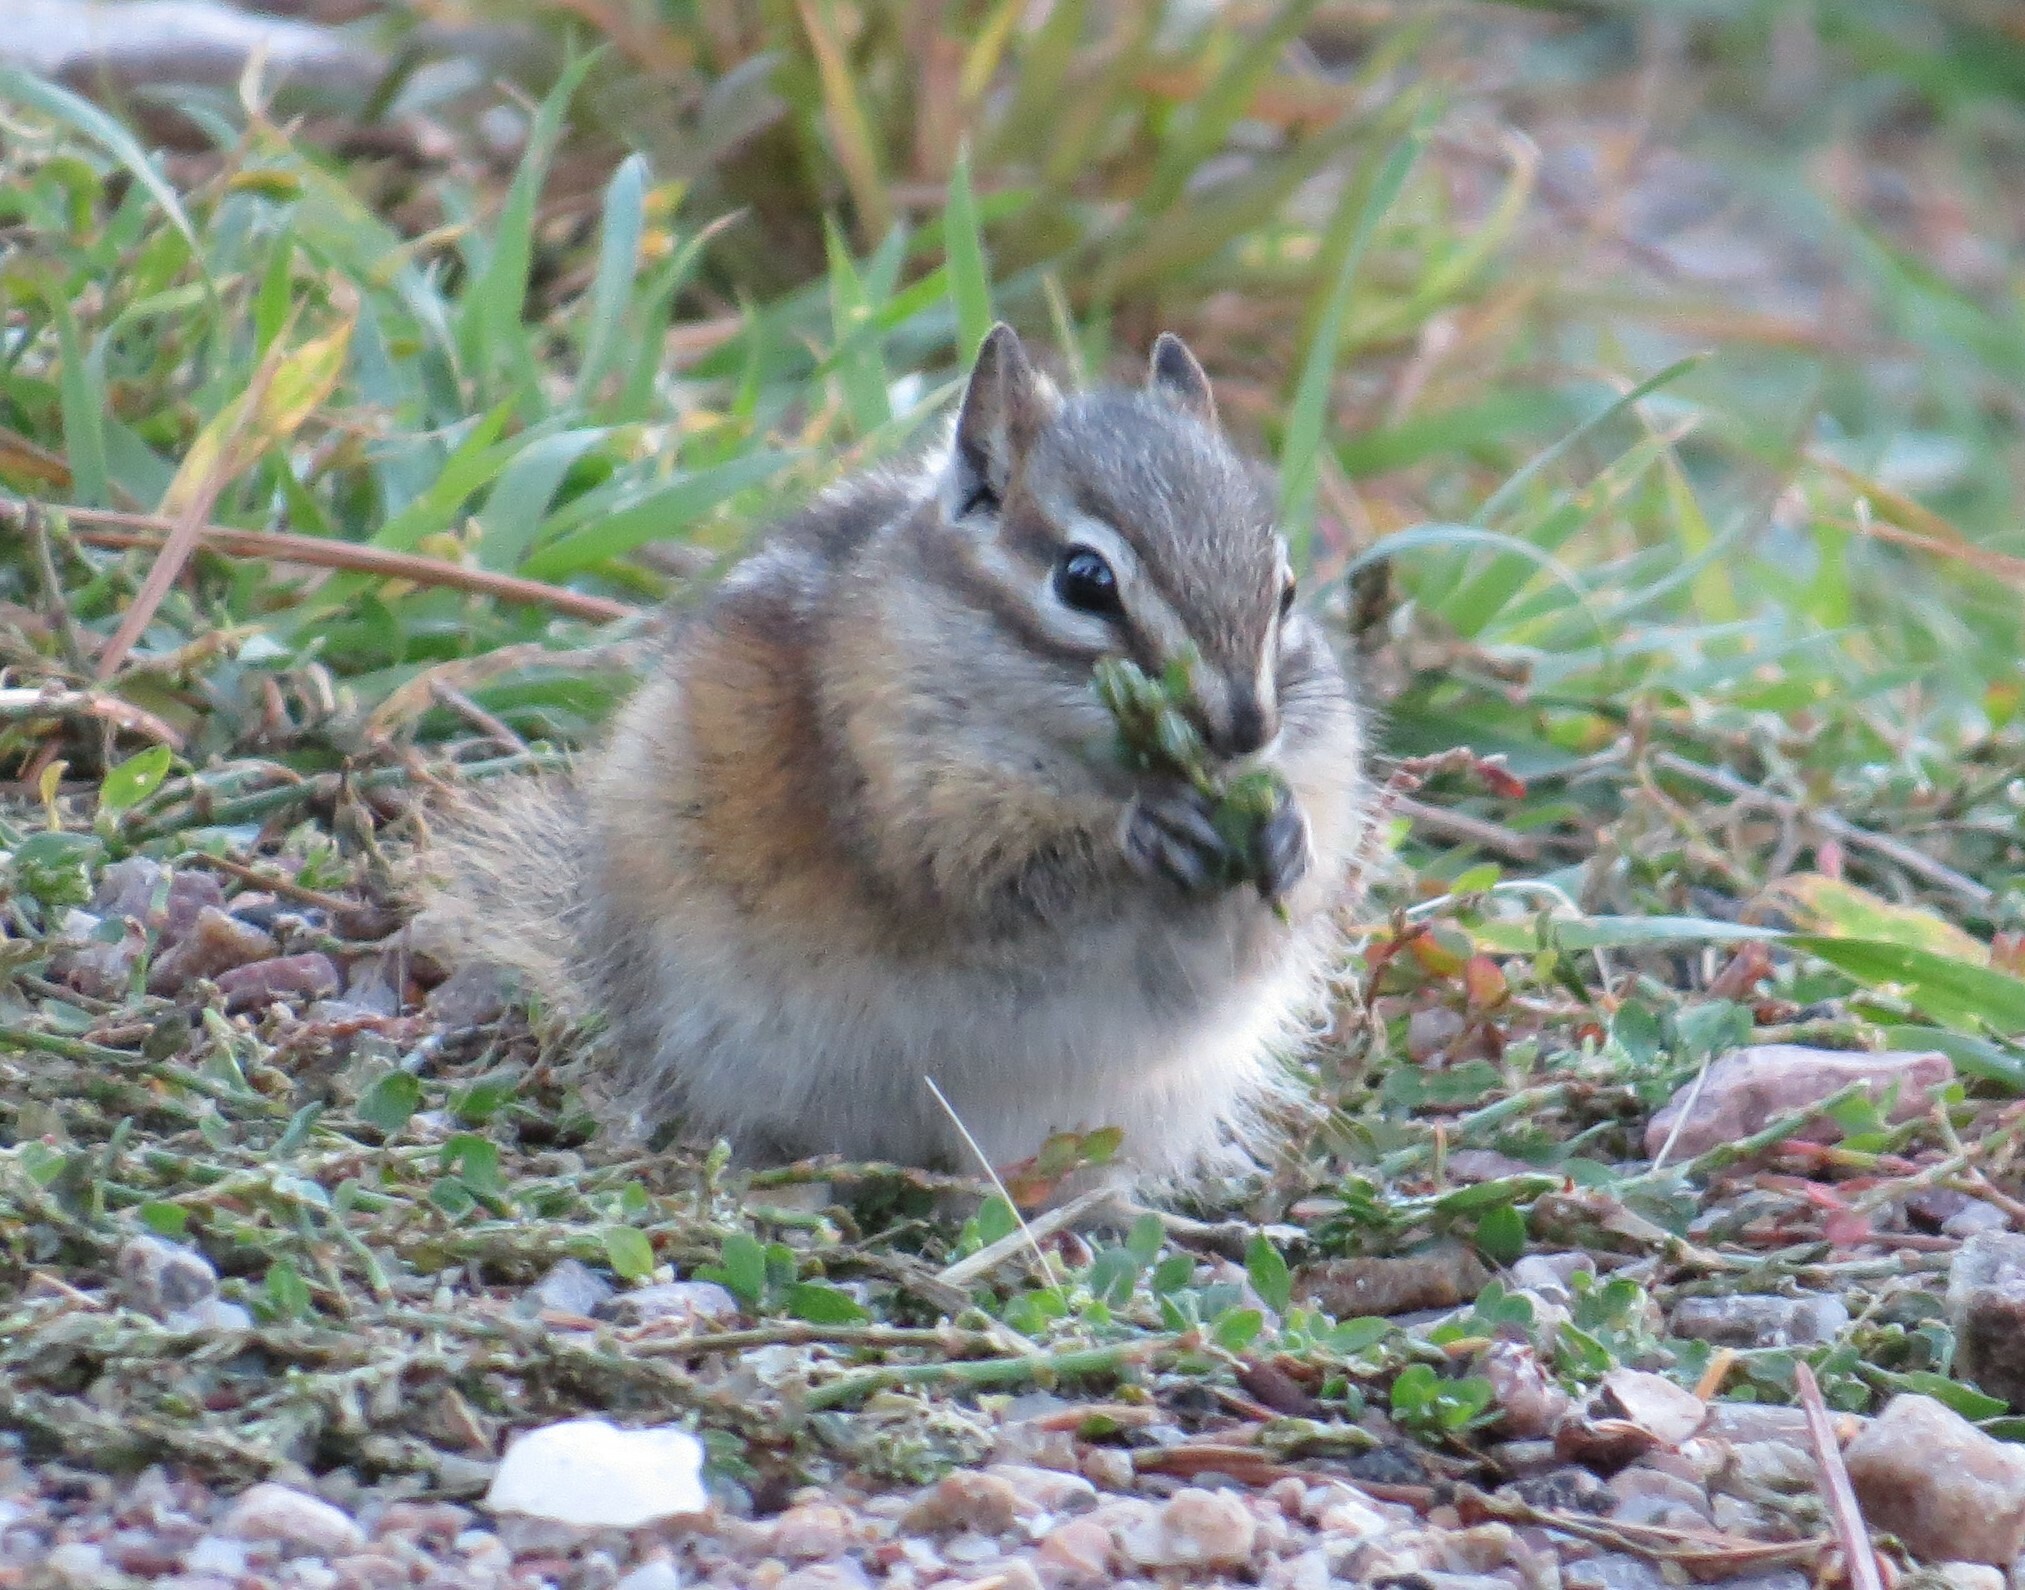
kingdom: Animalia
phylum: Chordata
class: Mammalia
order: Rodentia
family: Sciuridae
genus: Tamias
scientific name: Tamias minimus
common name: Least chipmunk
